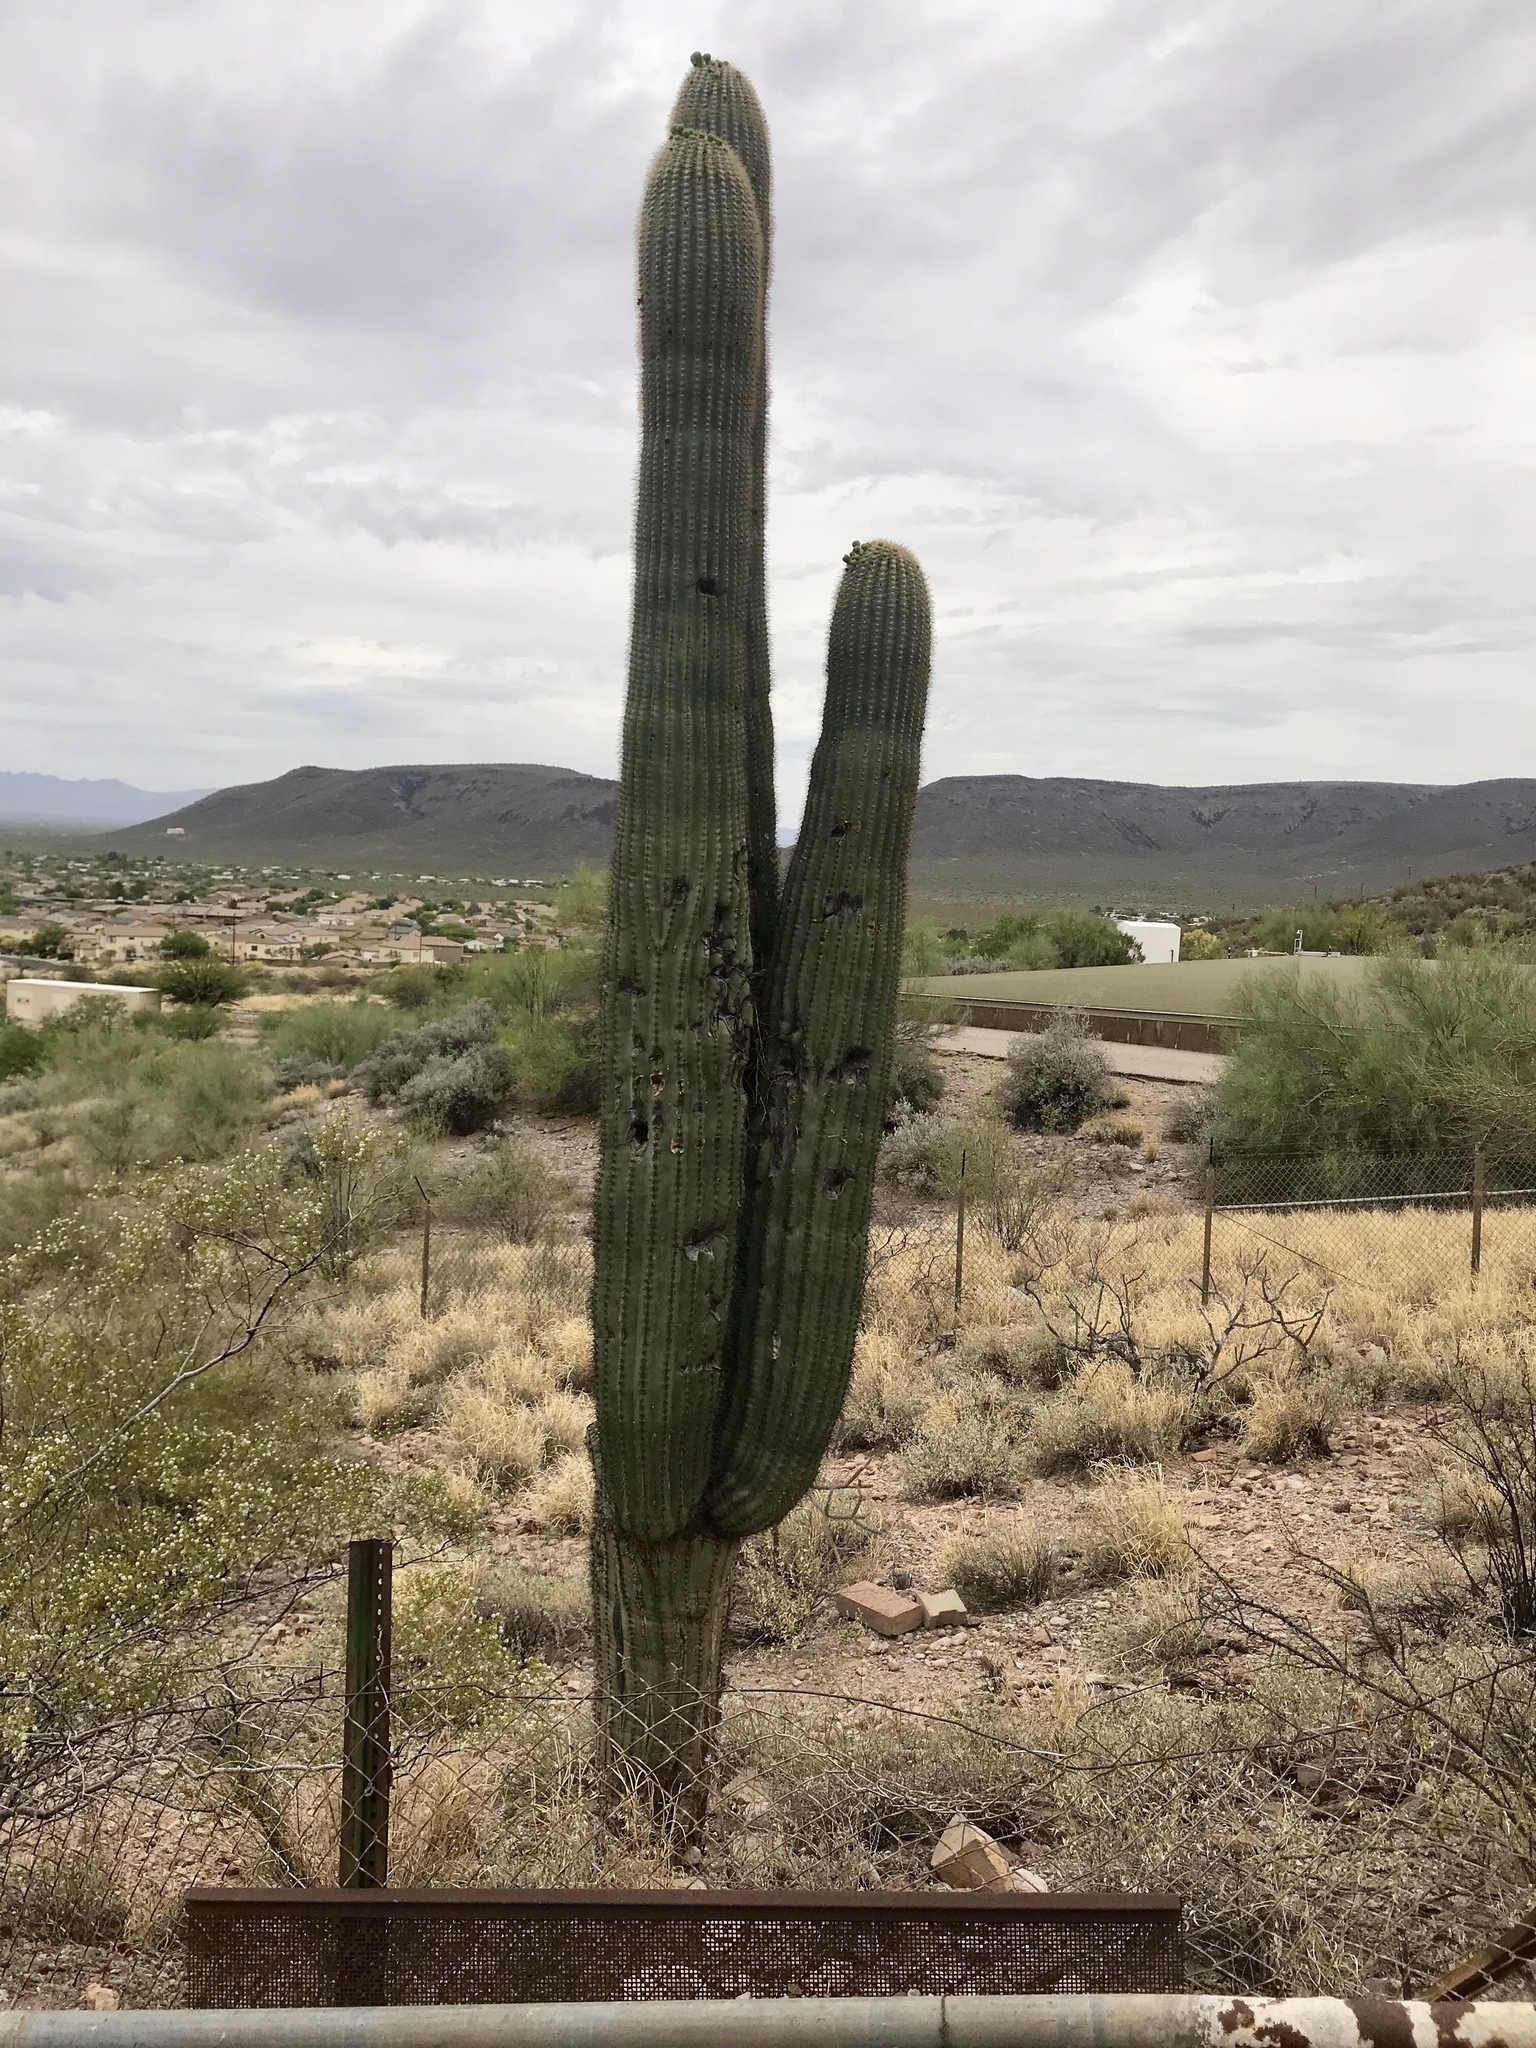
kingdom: Plantae
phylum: Tracheophyta
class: Magnoliopsida
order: Caryophyllales
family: Cactaceae
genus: Carnegiea
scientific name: Carnegiea gigantea
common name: Saguaro
